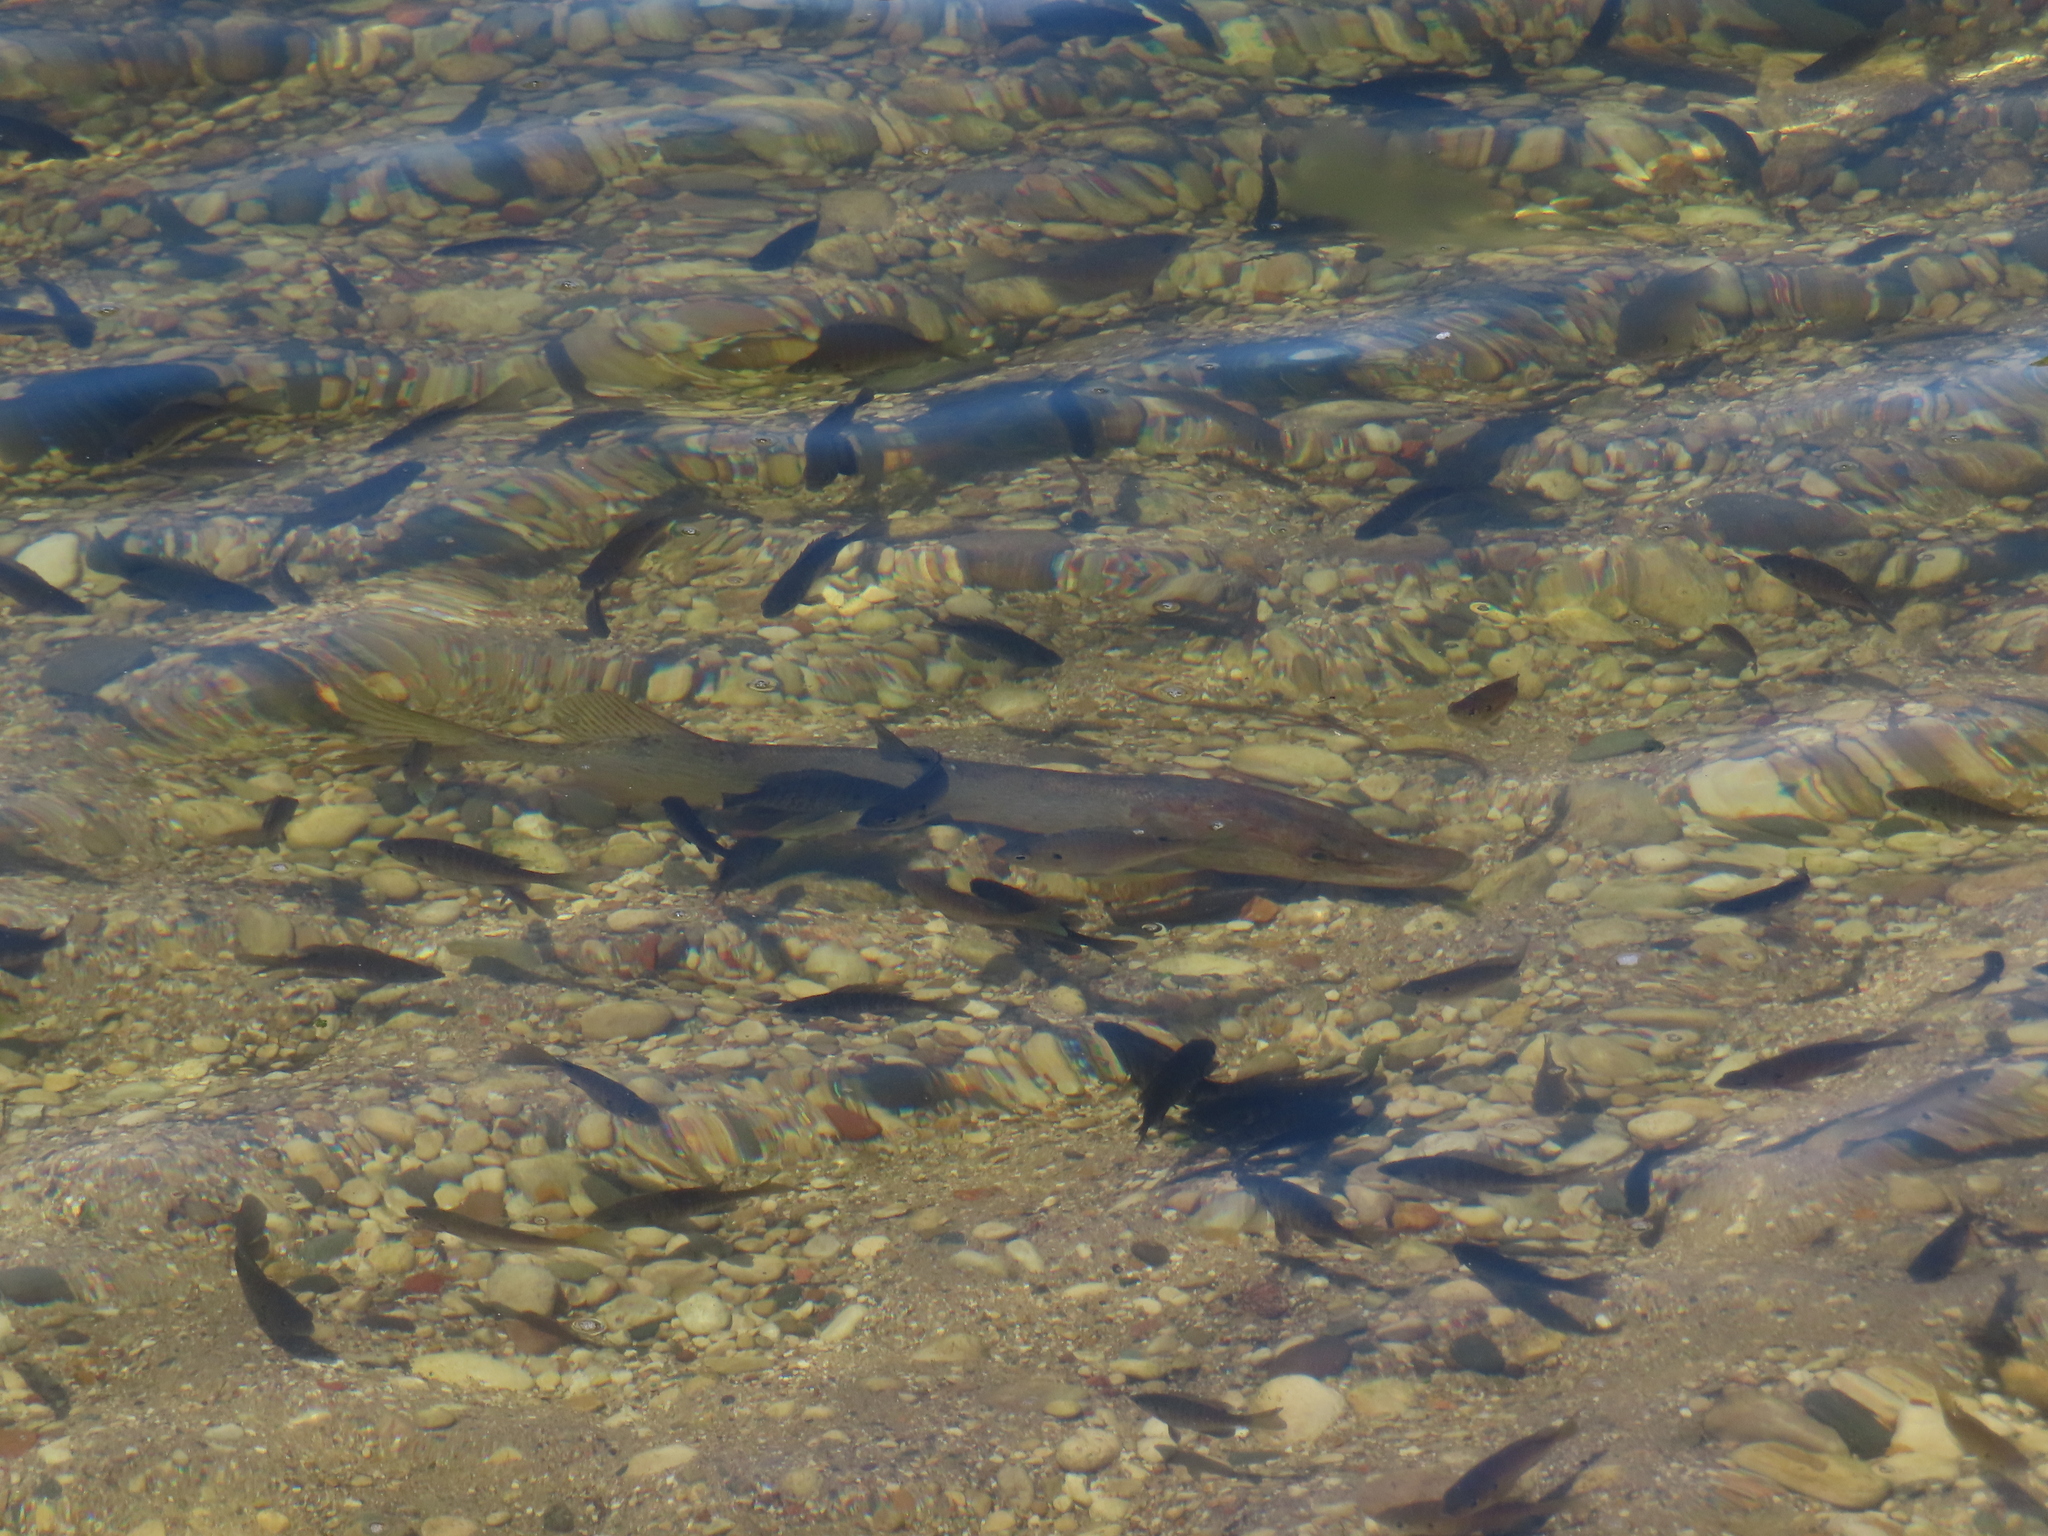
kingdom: Animalia
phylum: Chordata
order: Esociformes
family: Esocidae
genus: Esox
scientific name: Esox lucius
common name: Northern pike
